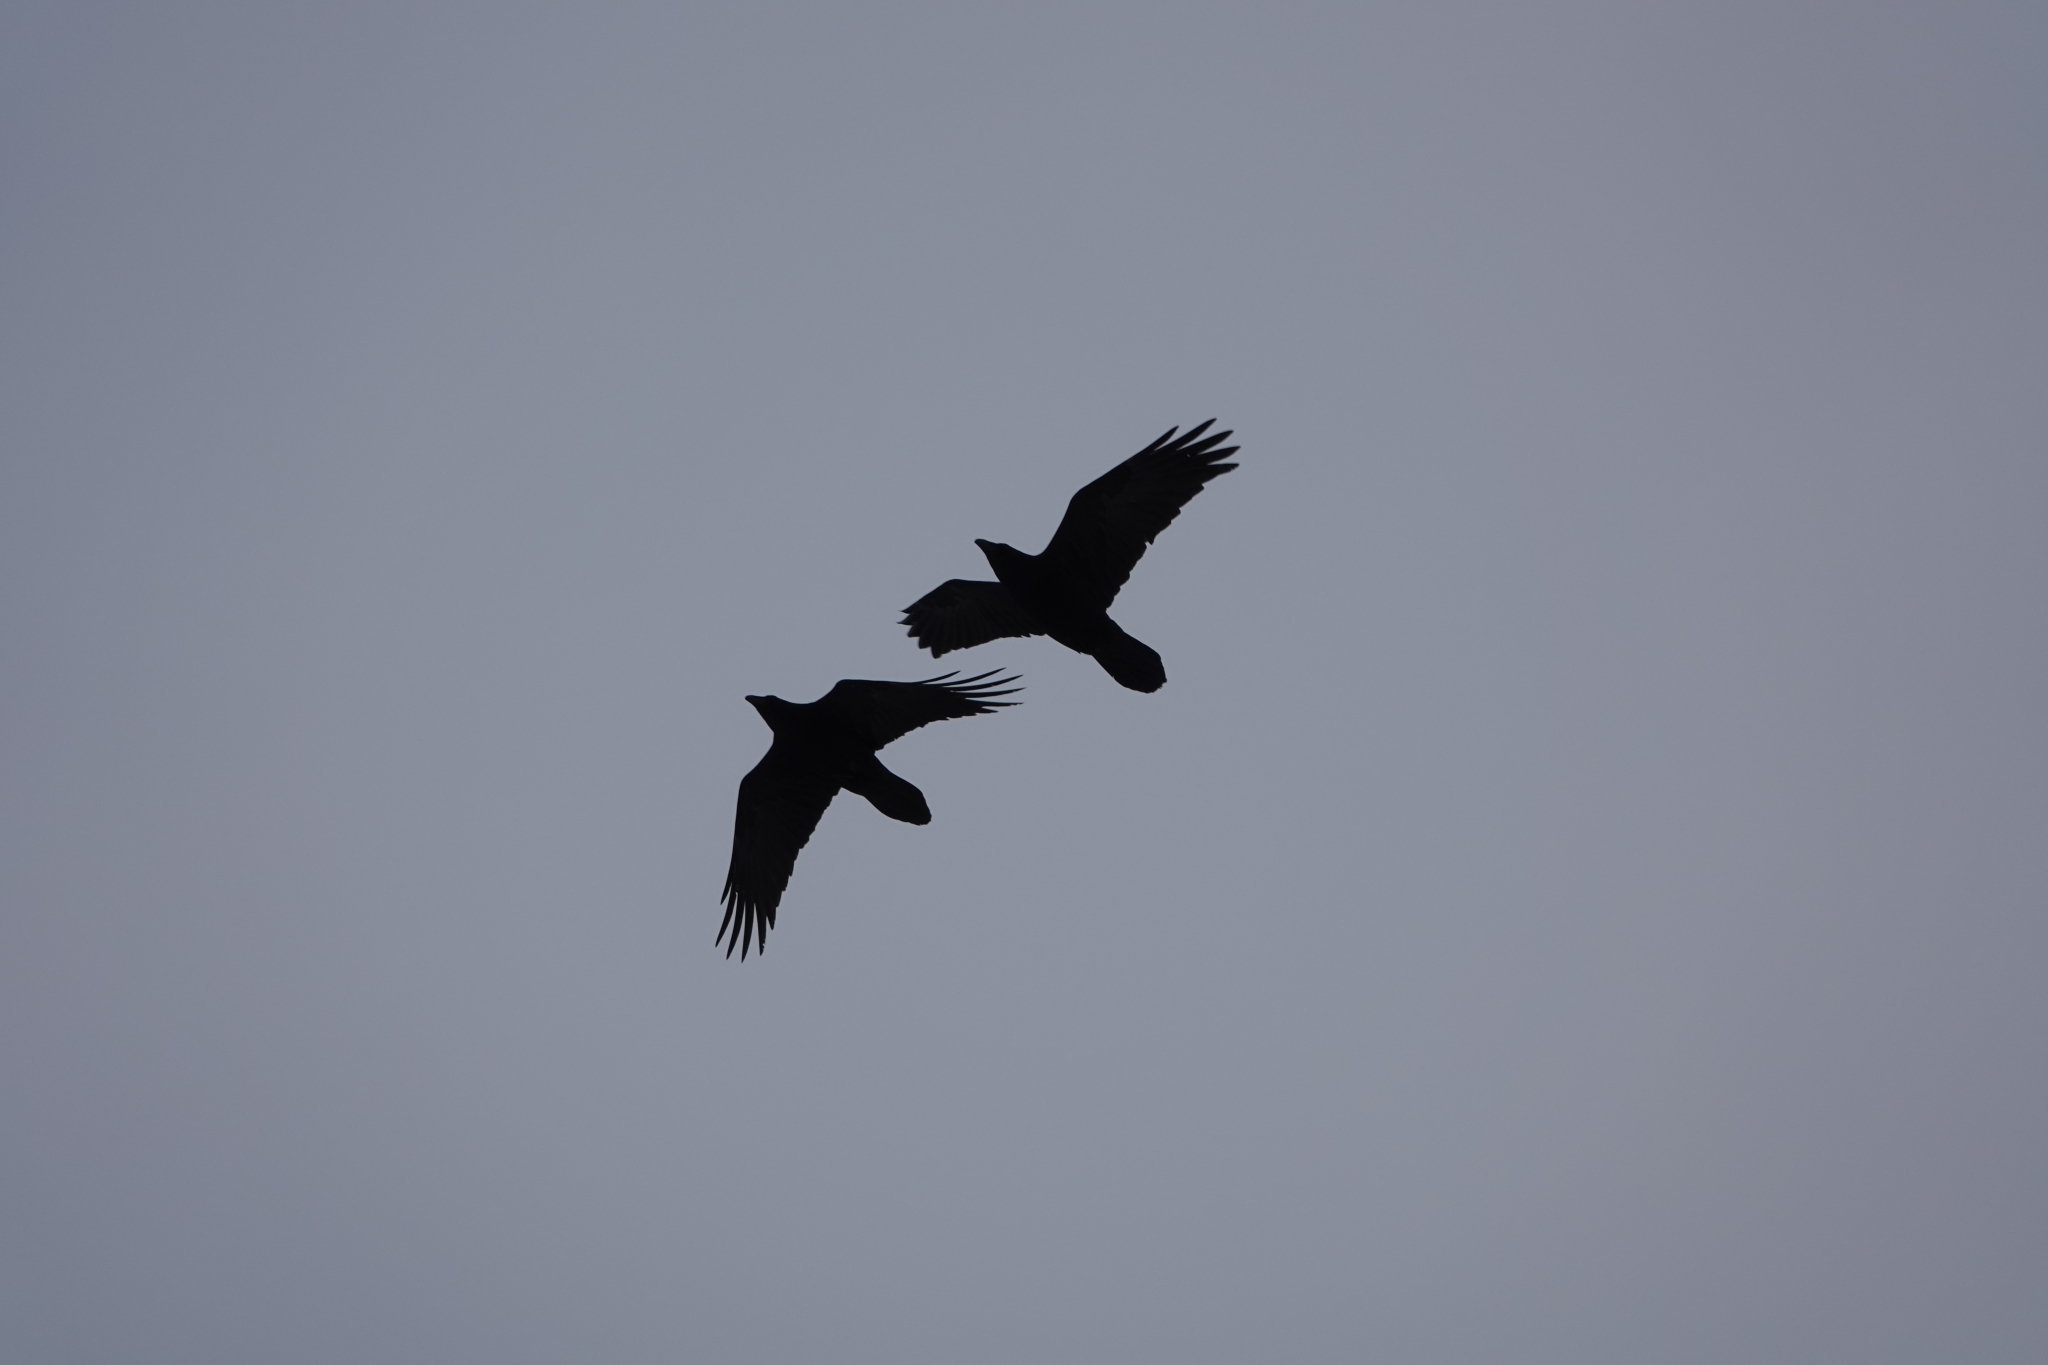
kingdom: Animalia
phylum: Chordata
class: Aves
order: Passeriformes
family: Corvidae
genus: Corvus
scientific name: Corvus corax
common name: Common raven
